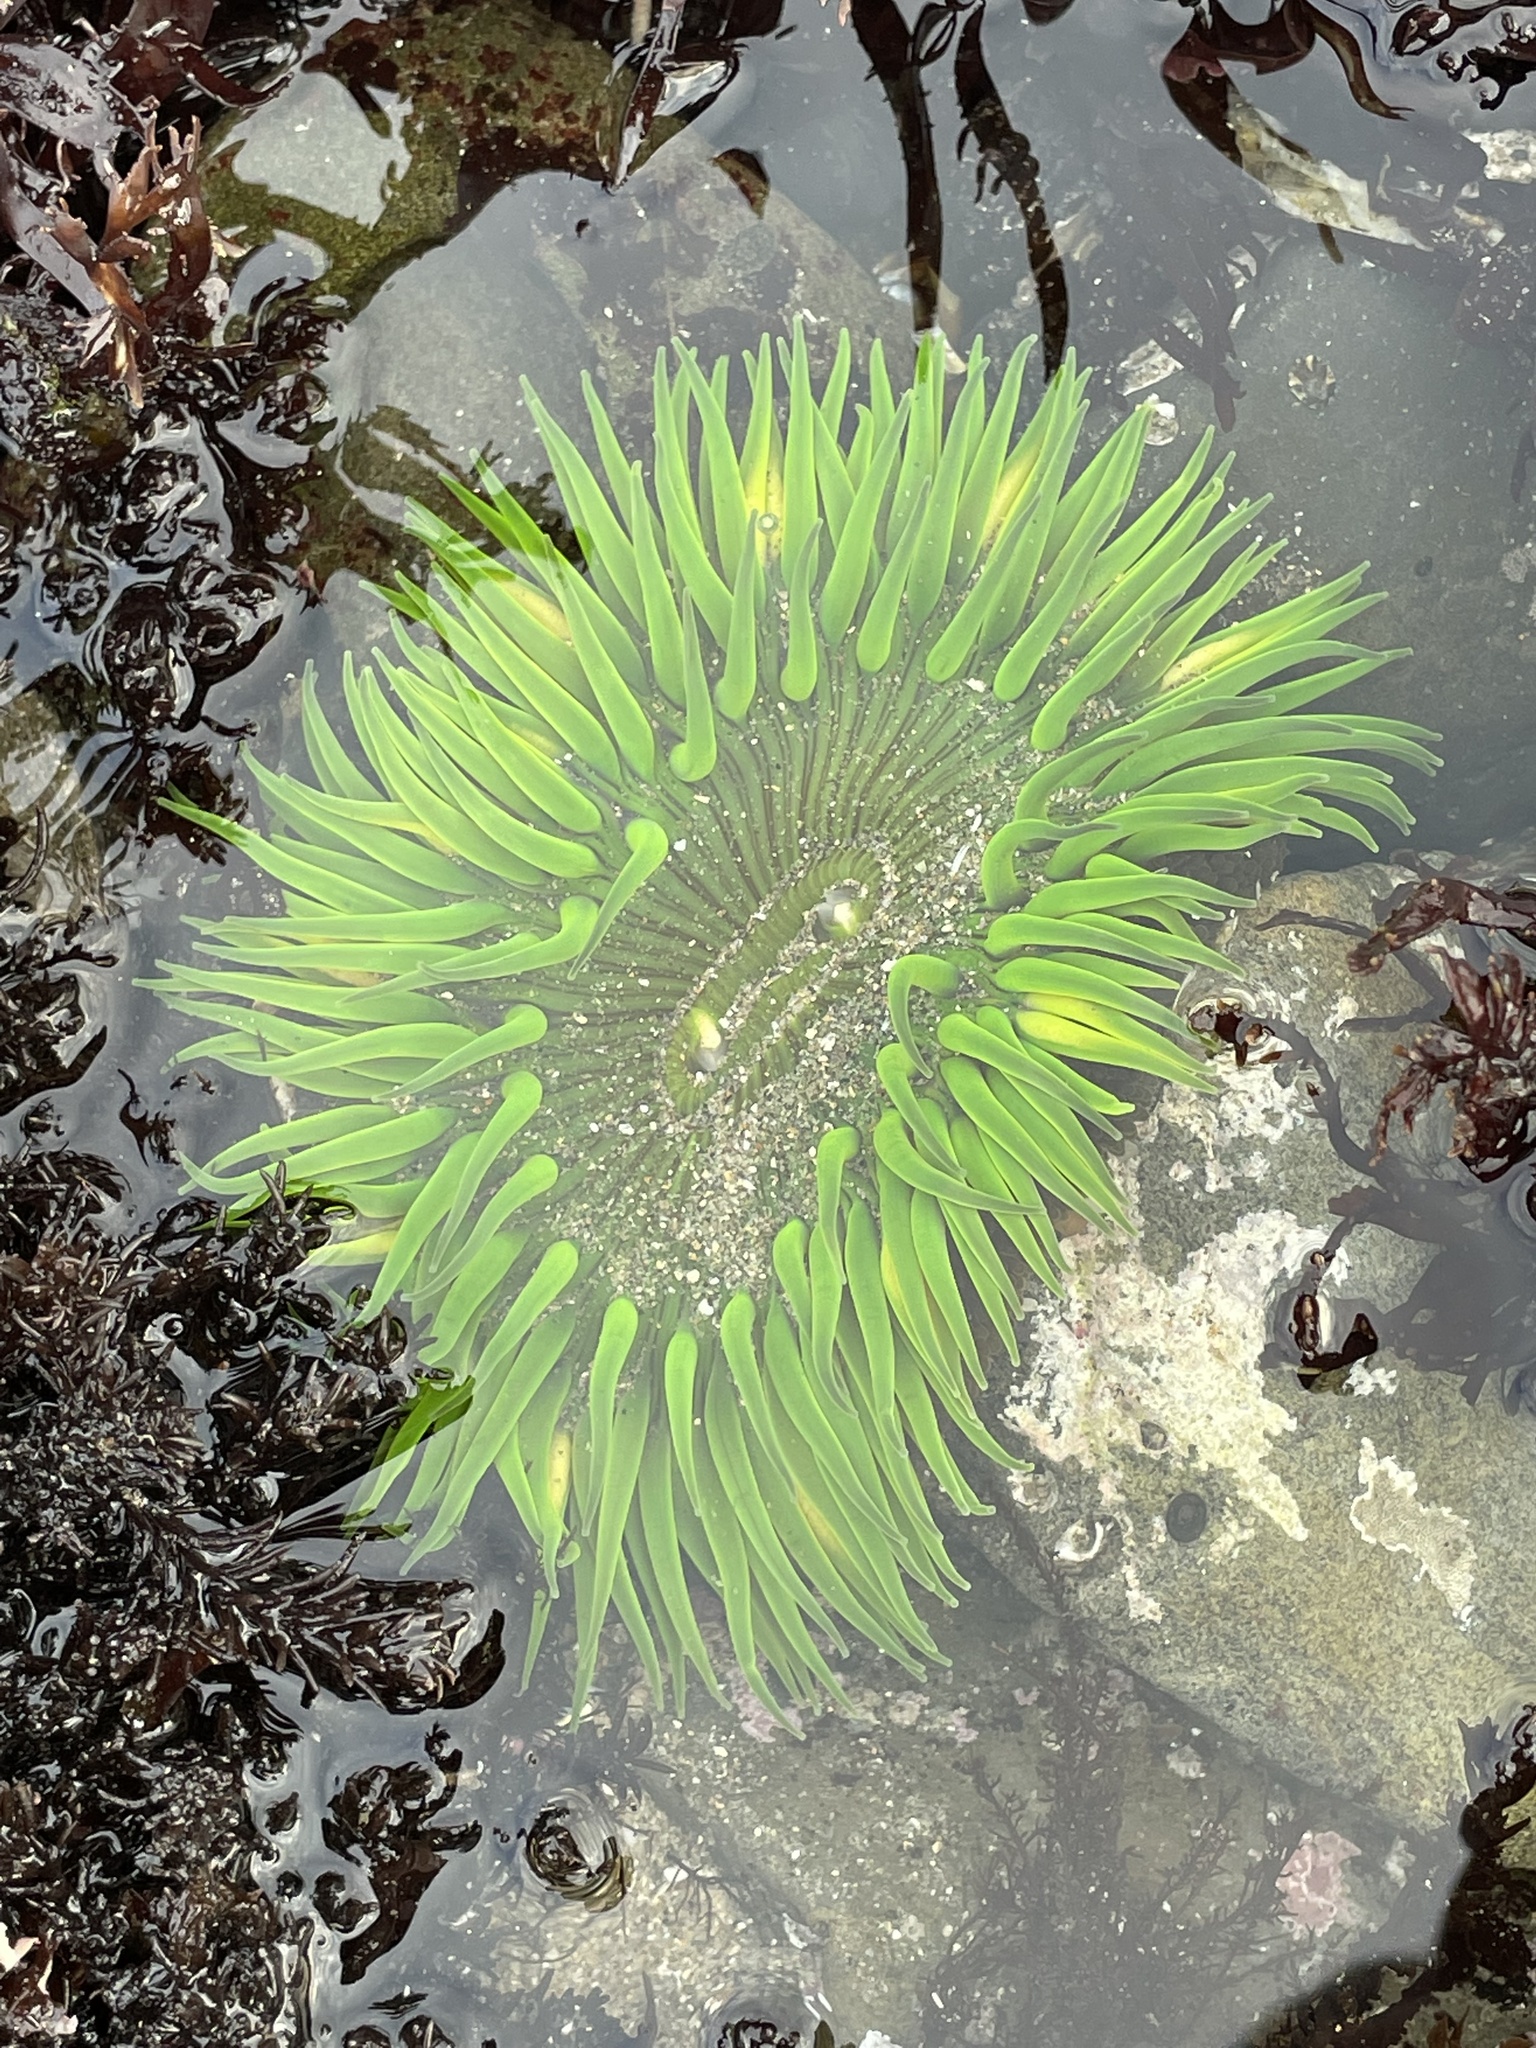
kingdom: Animalia
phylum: Cnidaria
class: Anthozoa
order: Actiniaria
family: Actiniidae
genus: Anthopleura
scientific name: Anthopleura sola
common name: Sun anemone
